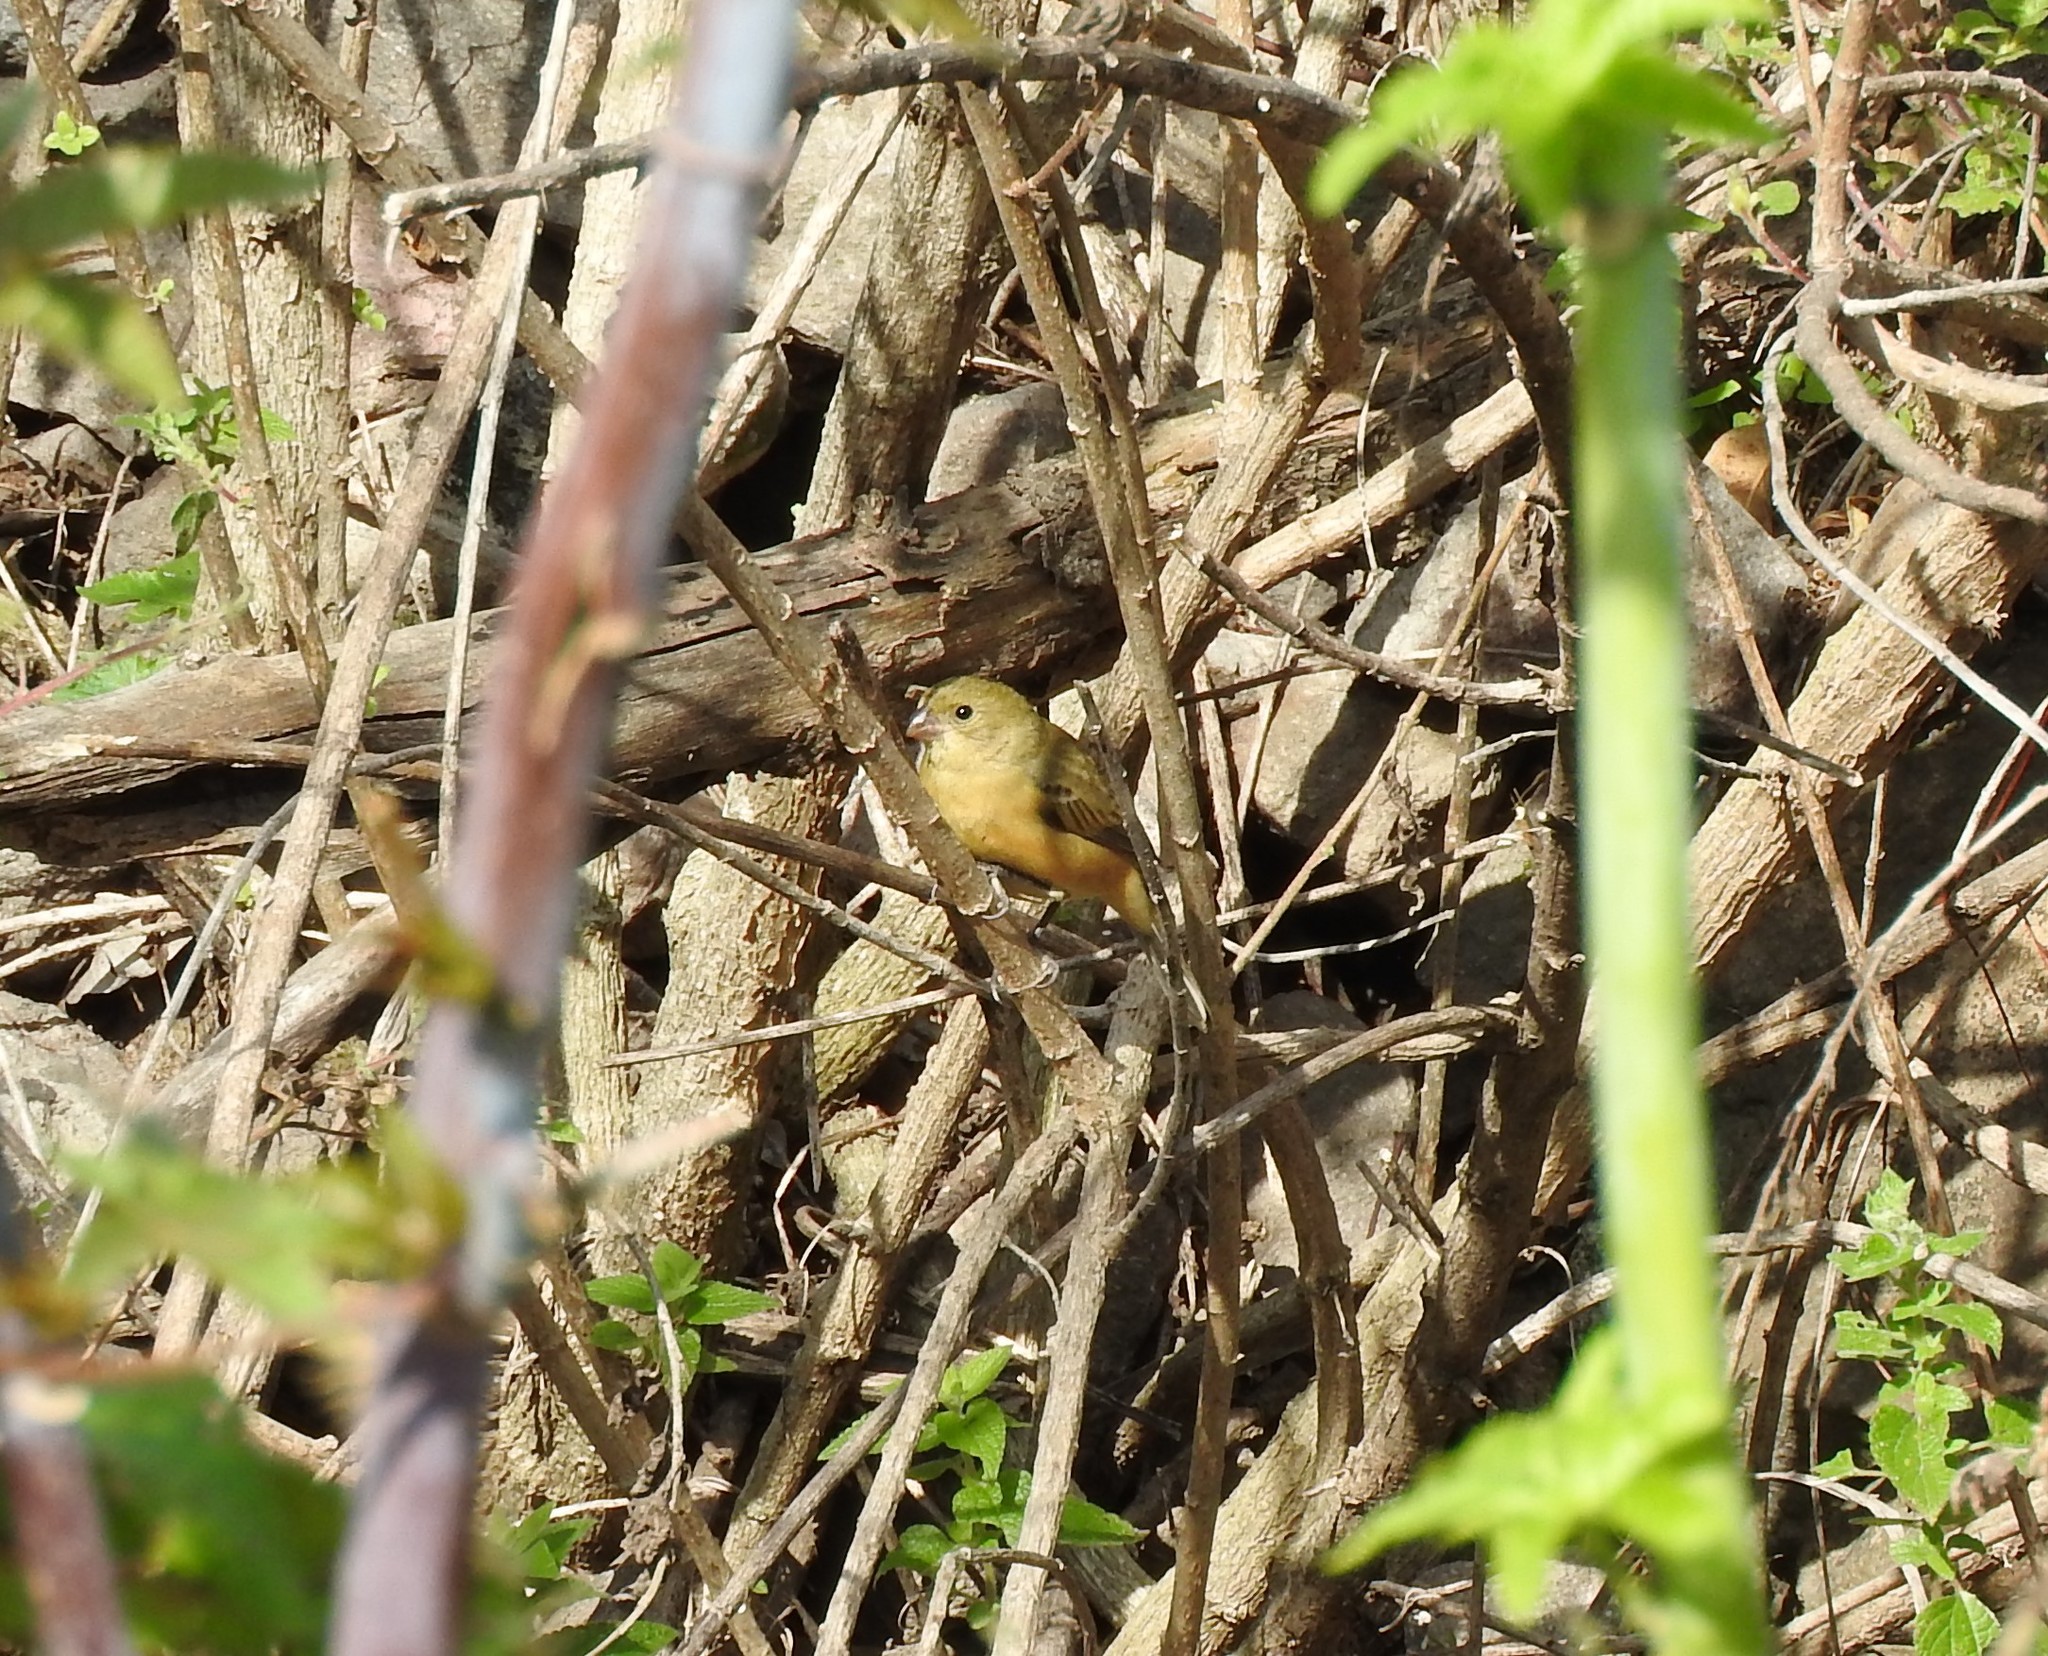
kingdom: Animalia
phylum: Chordata
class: Aves
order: Passeriformes
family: Thraupidae
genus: Sporophila
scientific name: Sporophila torqueola
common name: White-collared seedeater
